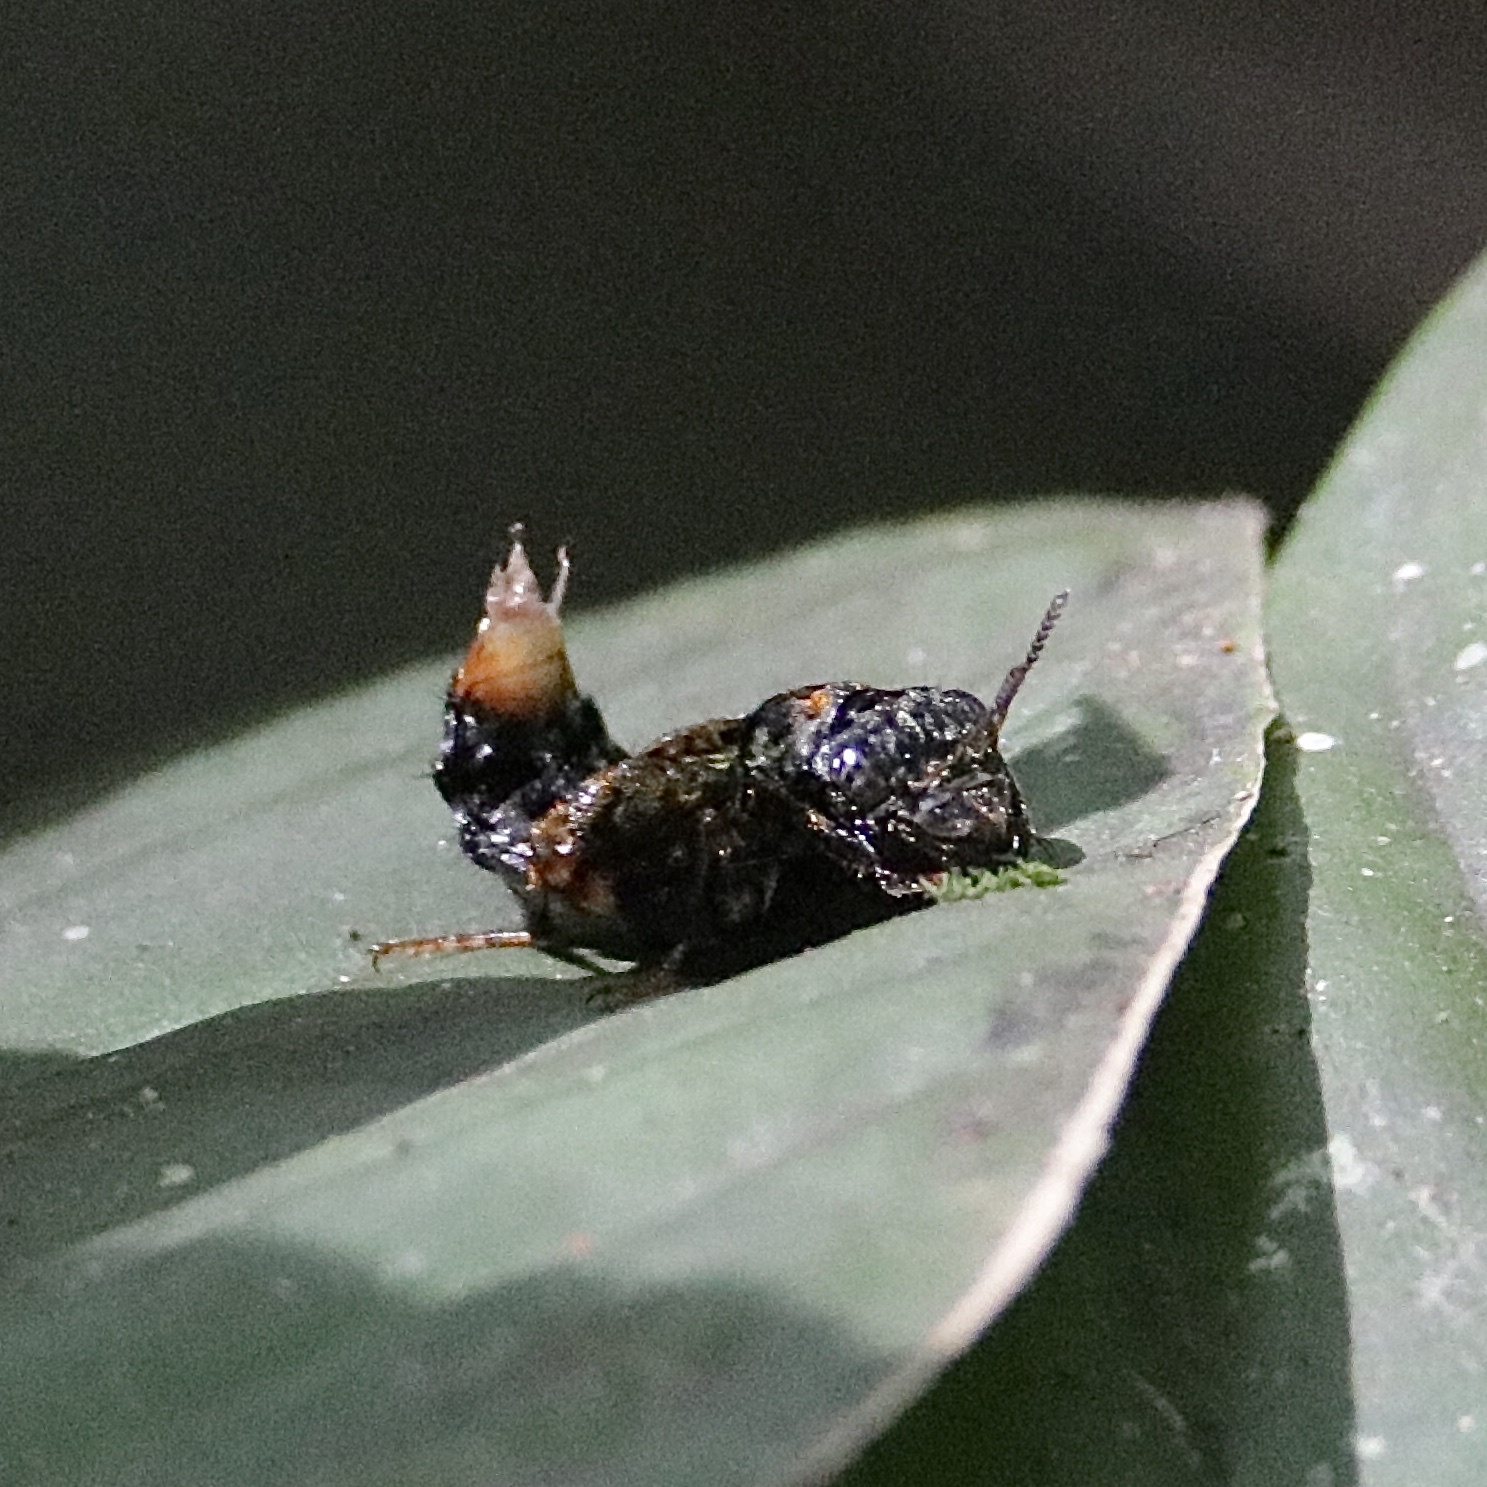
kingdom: Animalia
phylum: Arthropoda
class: Insecta
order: Coleoptera
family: Staphylinidae
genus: Leistotrophus
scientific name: Leistotrophus versicolor
